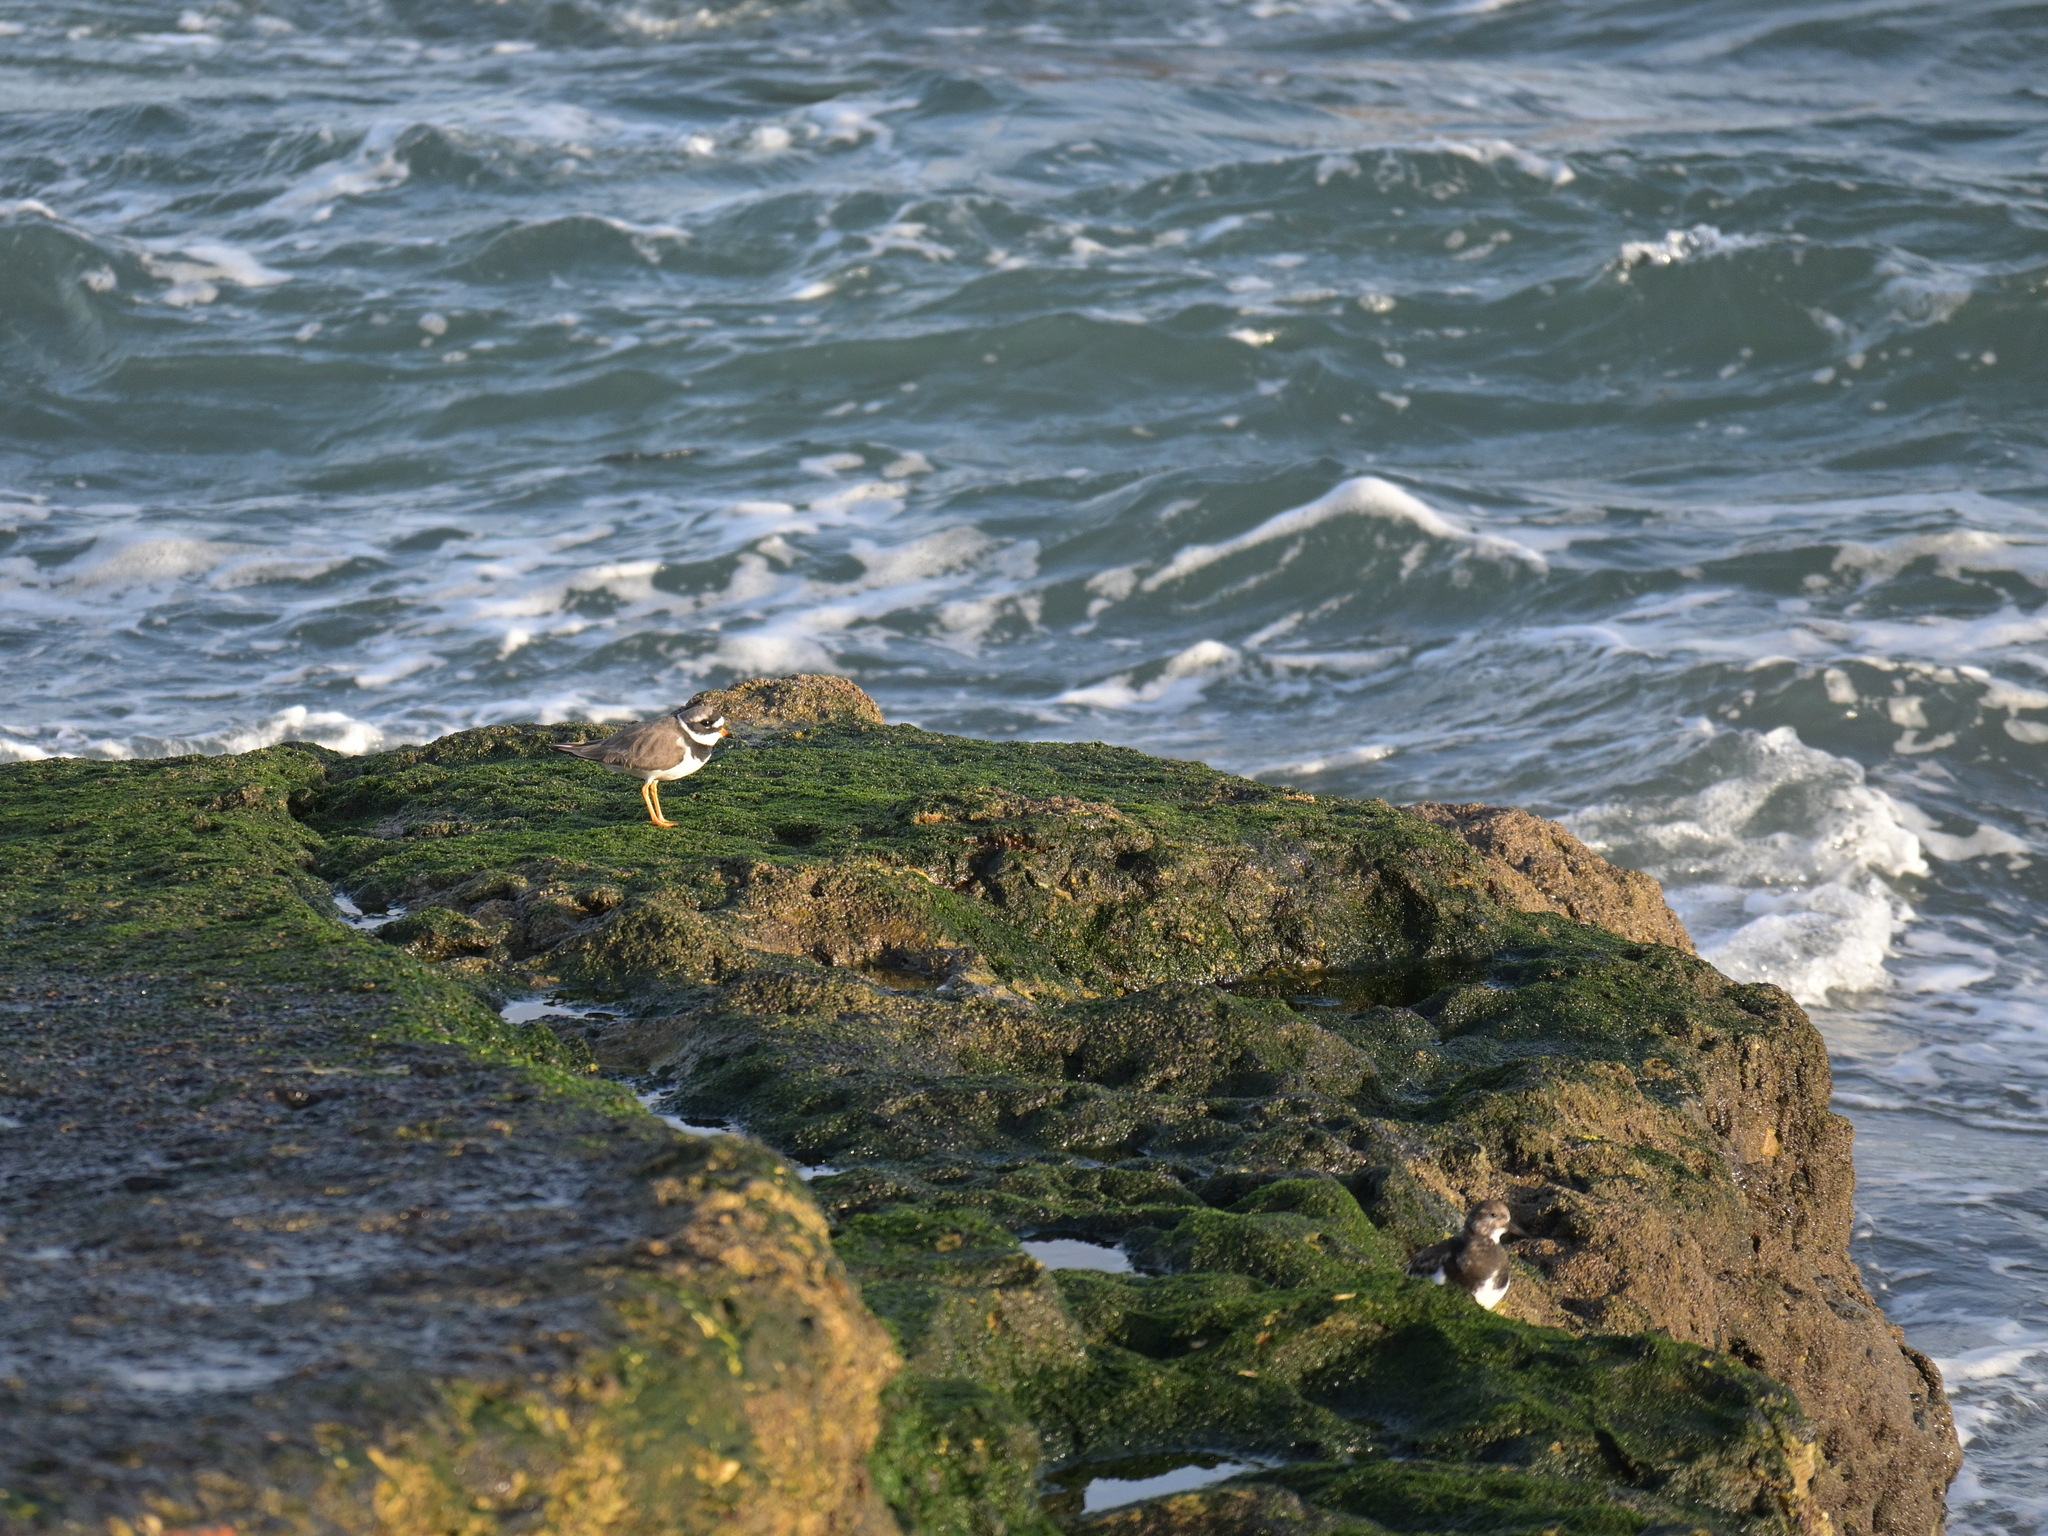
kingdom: Animalia
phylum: Chordata
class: Aves
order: Charadriiformes
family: Charadriidae
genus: Charadrius
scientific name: Charadrius hiaticula
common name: Common ringed plover
